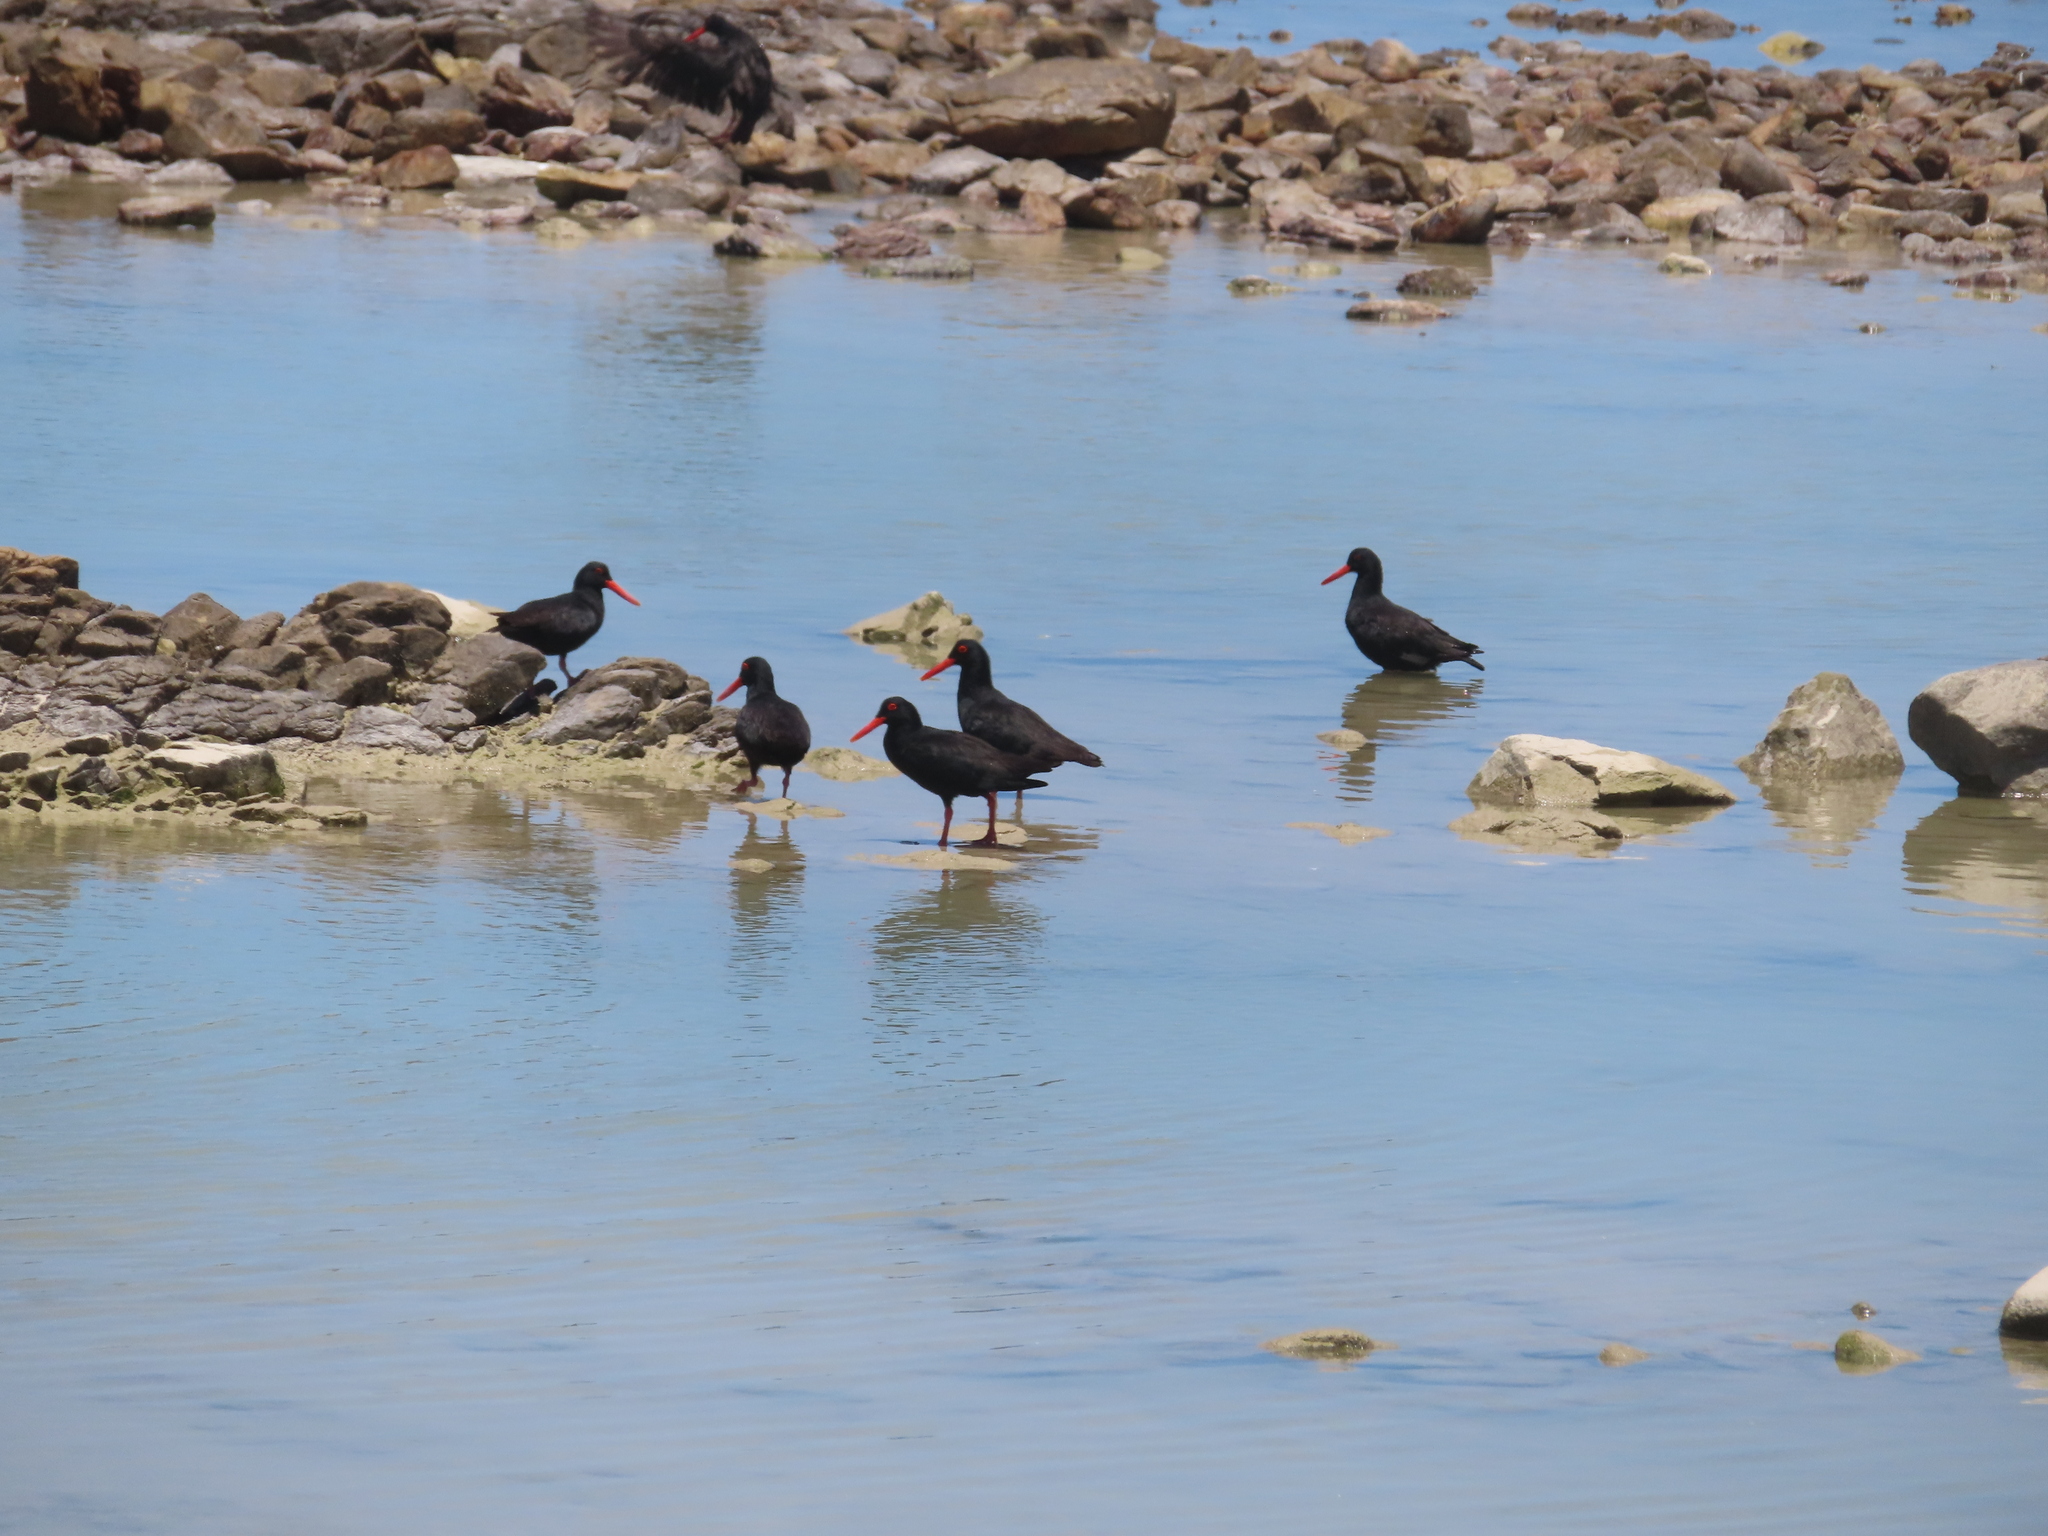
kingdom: Animalia
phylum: Chordata
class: Aves
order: Charadriiformes
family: Haematopodidae
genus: Haematopus
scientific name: Haematopus moquini
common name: African oystercatcher
